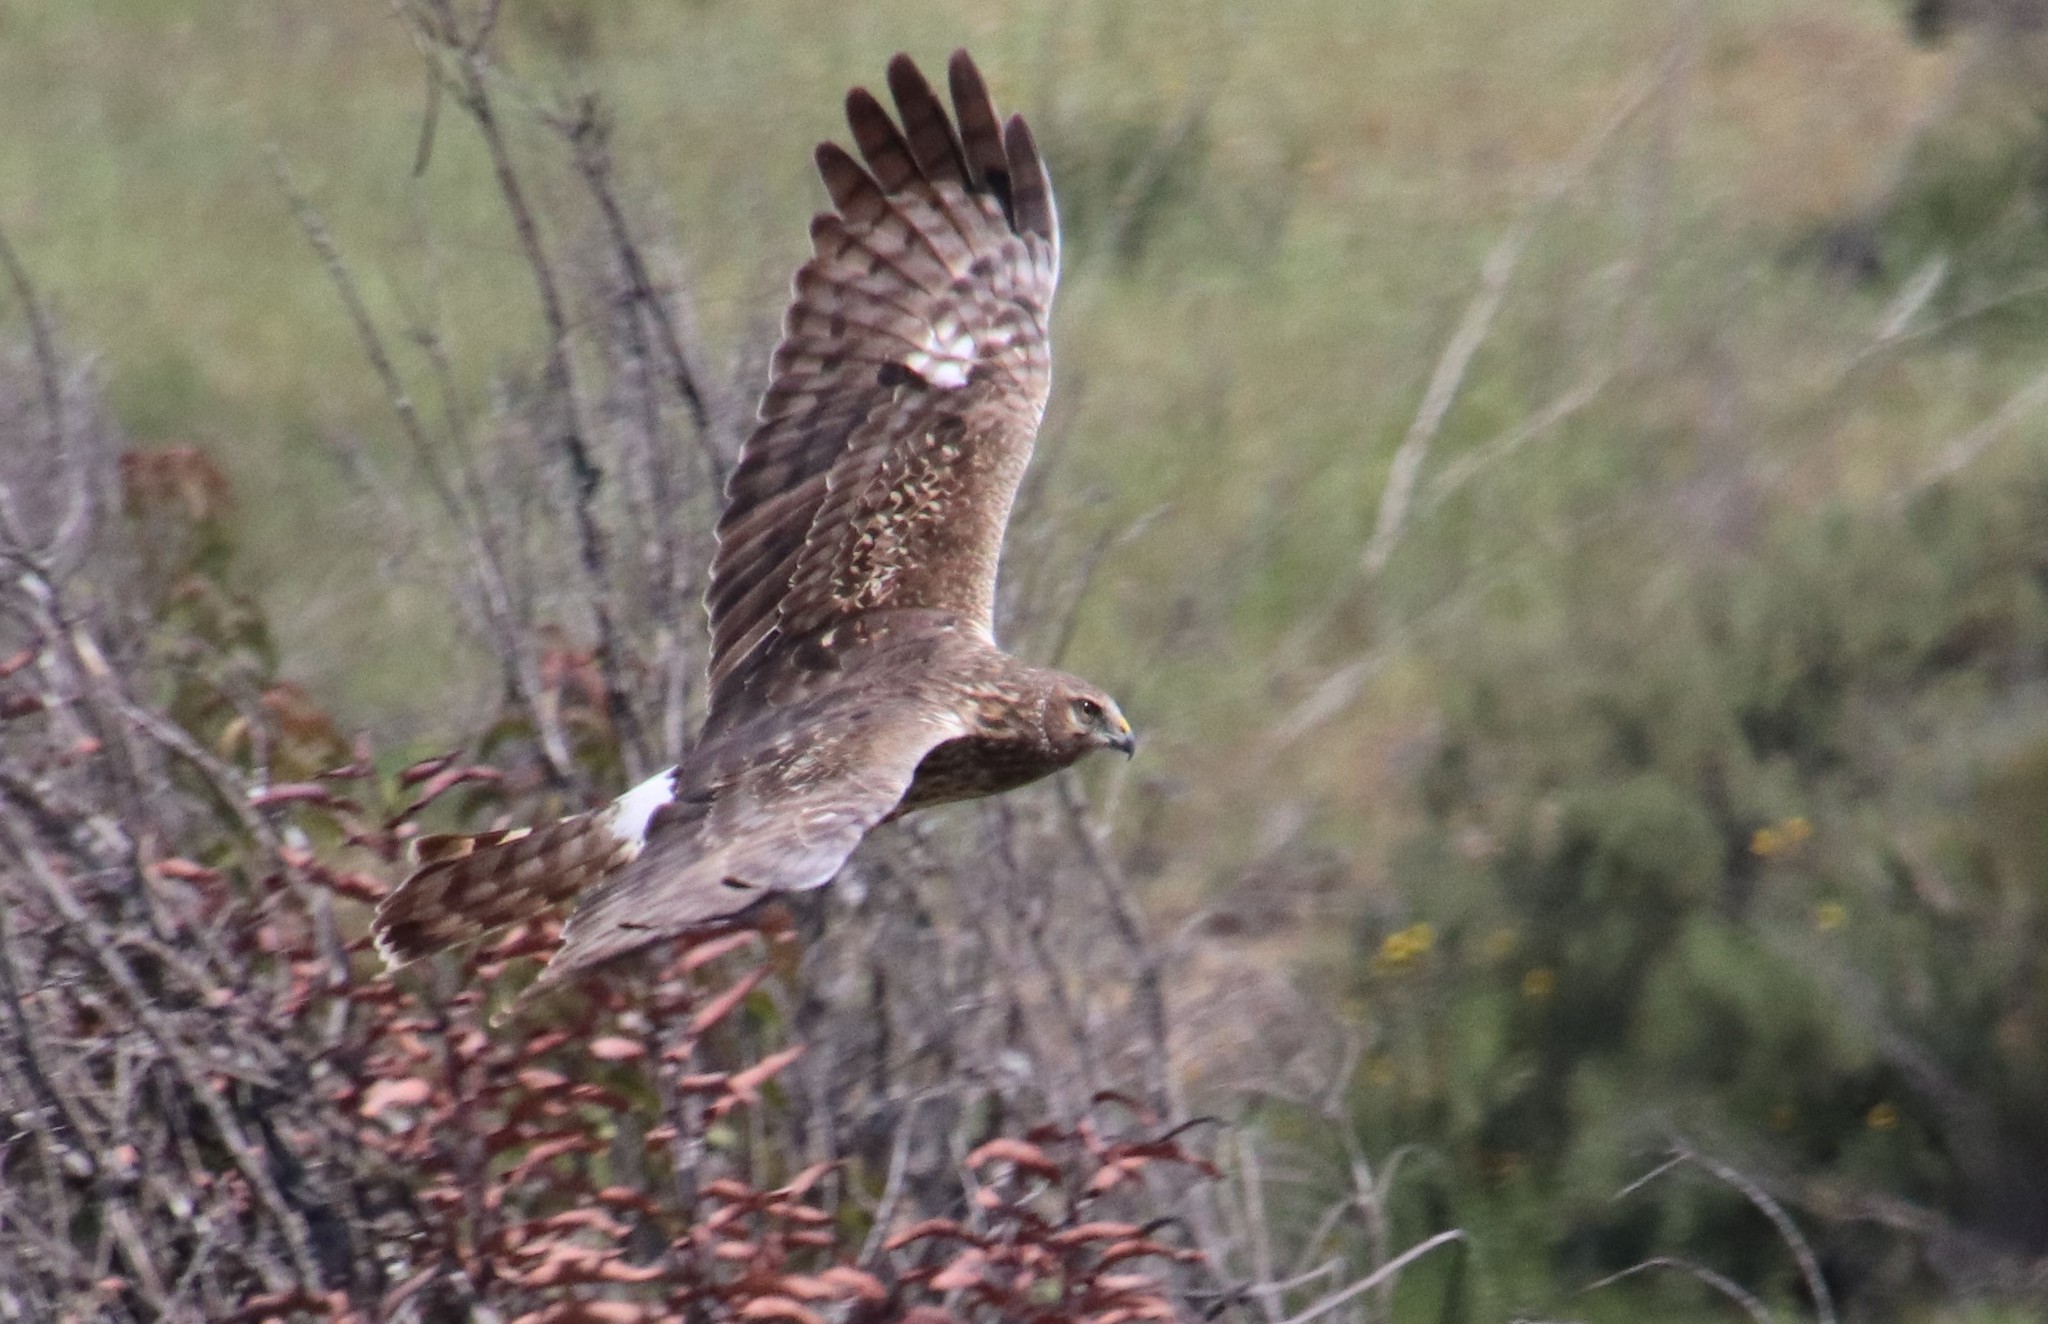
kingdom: Animalia
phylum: Chordata
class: Aves
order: Accipitriformes
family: Accipitridae
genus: Circus
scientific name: Circus cyaneus
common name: Hen harrier
